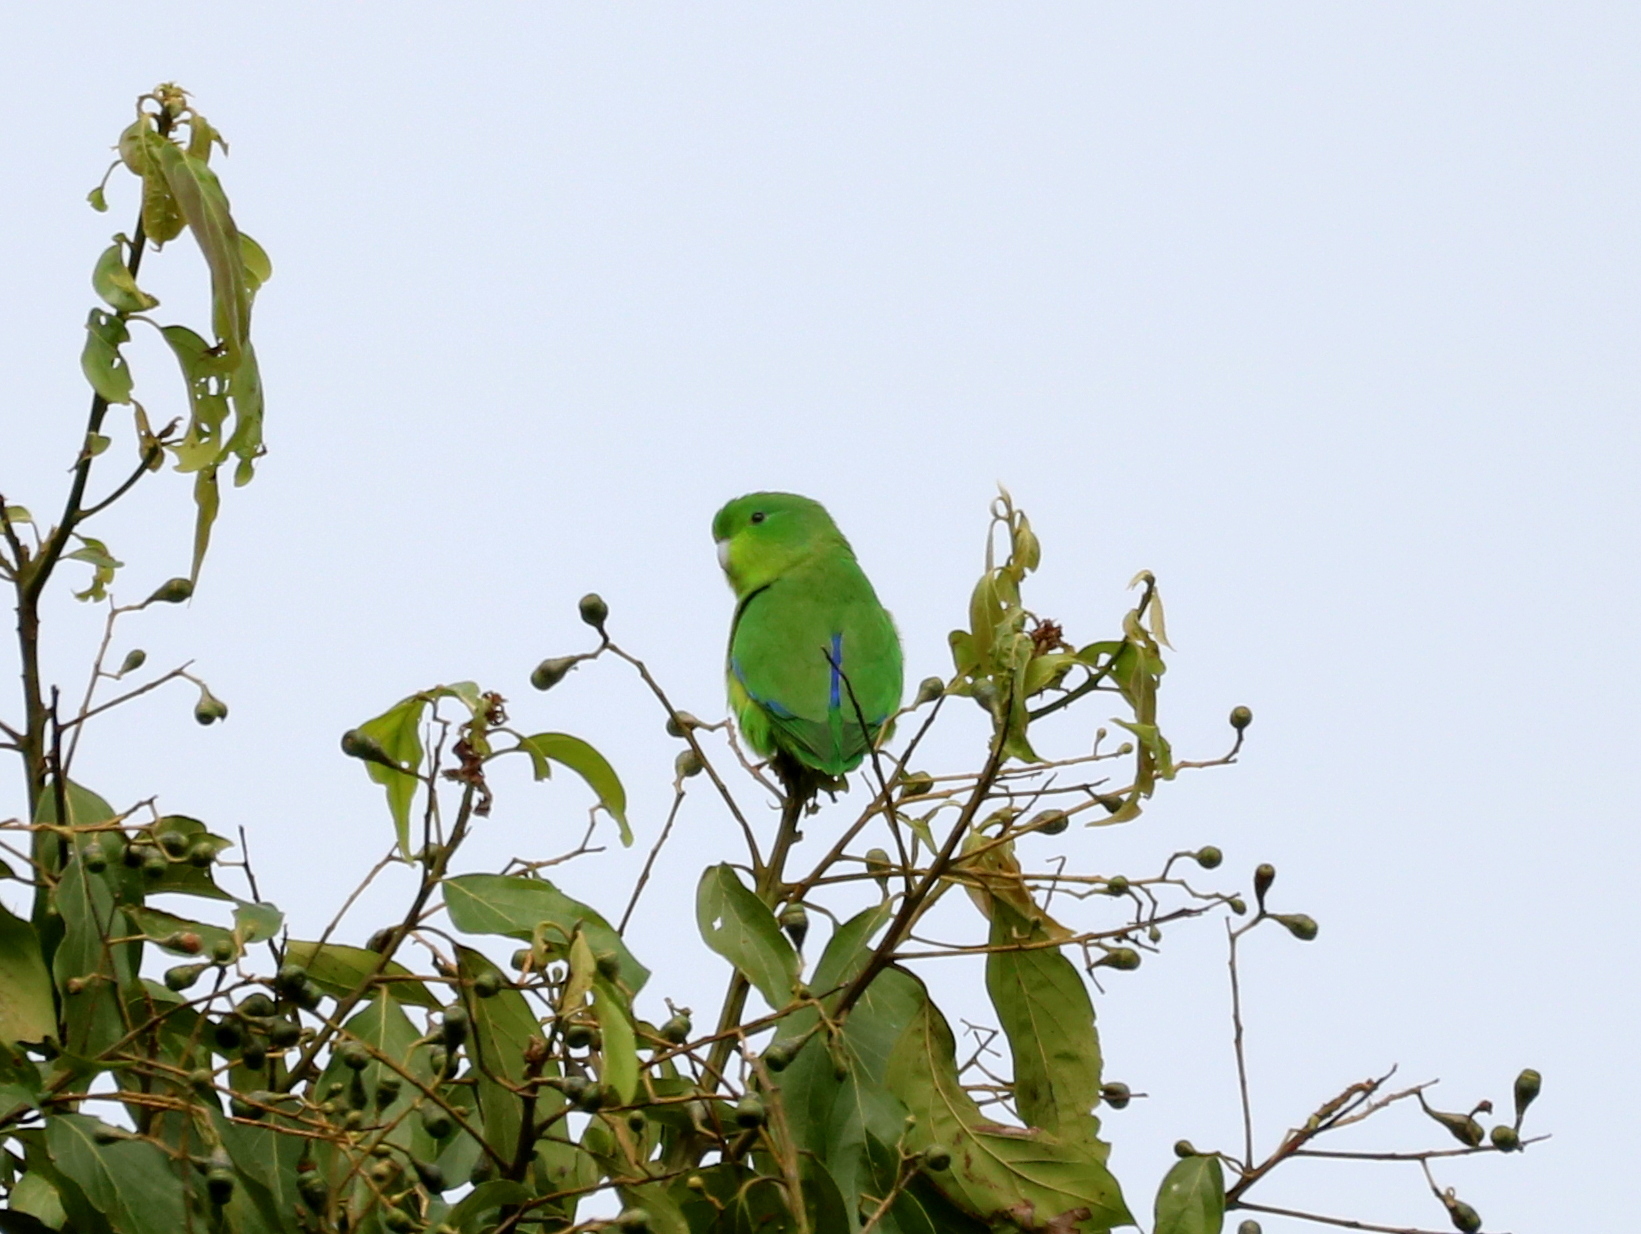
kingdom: Animalia
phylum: Chordata
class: Aves
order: Psittaciformes
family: Psittacidae
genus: Forpus
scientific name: Forpus xanthopterygius
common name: Blue-winged parrotlet
